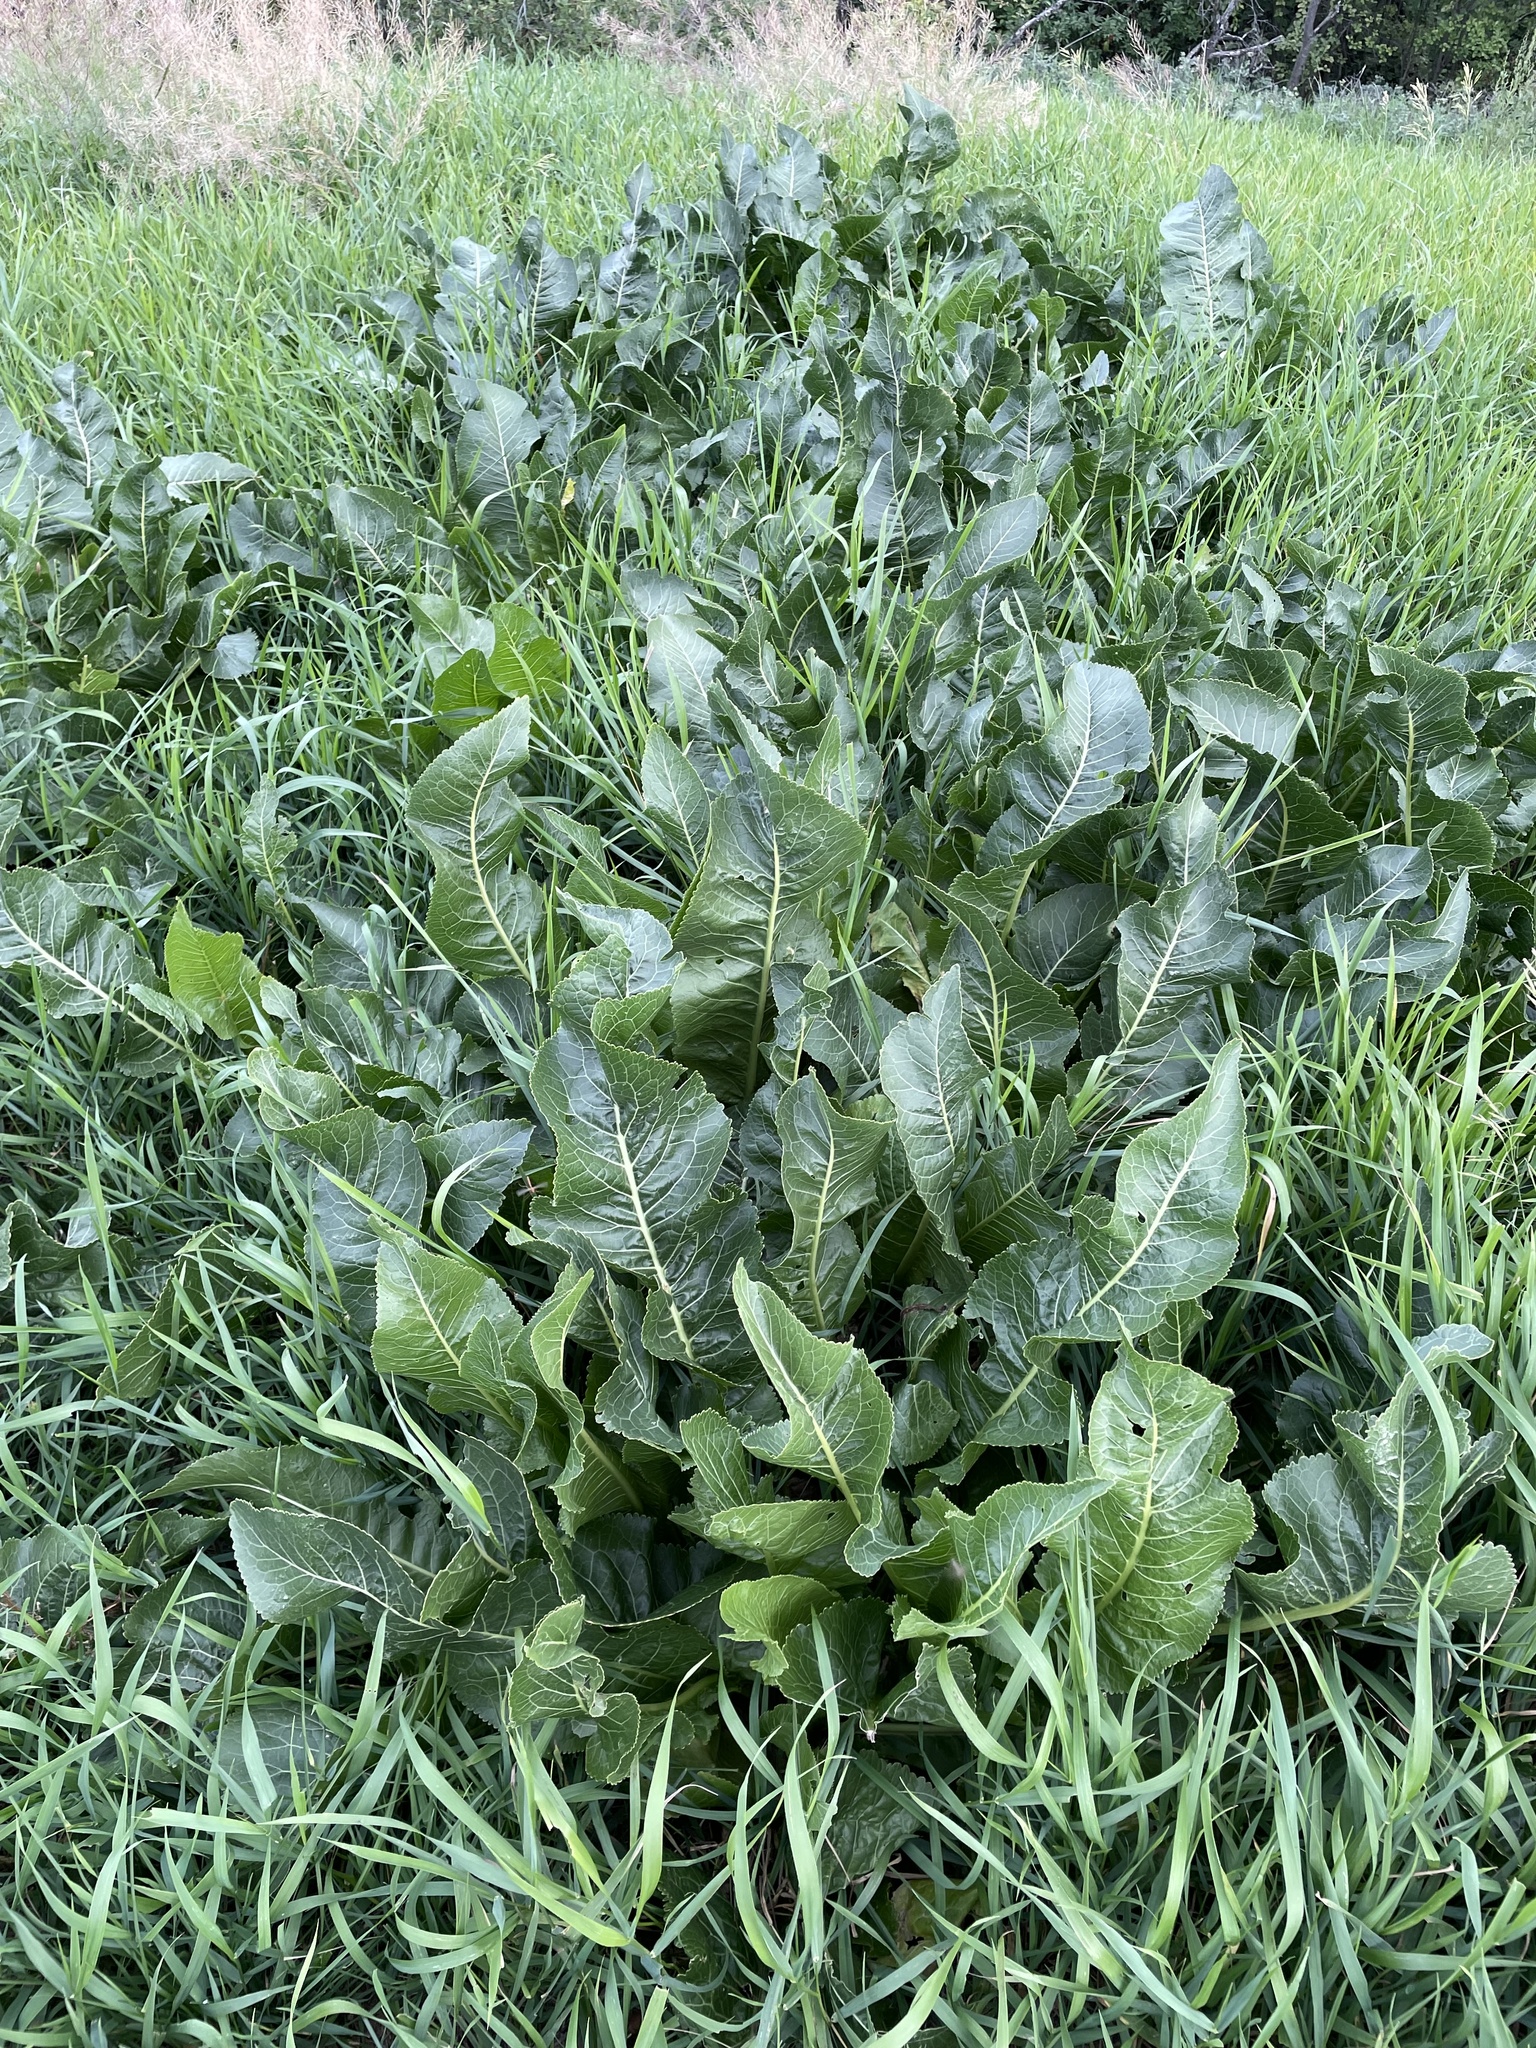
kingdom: Plantae
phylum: Tracheophyta
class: Magnoliopsida
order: Brassicales
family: Brassicaceae
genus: Armoracia
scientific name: Armoracia rusticana
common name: Horseradish
